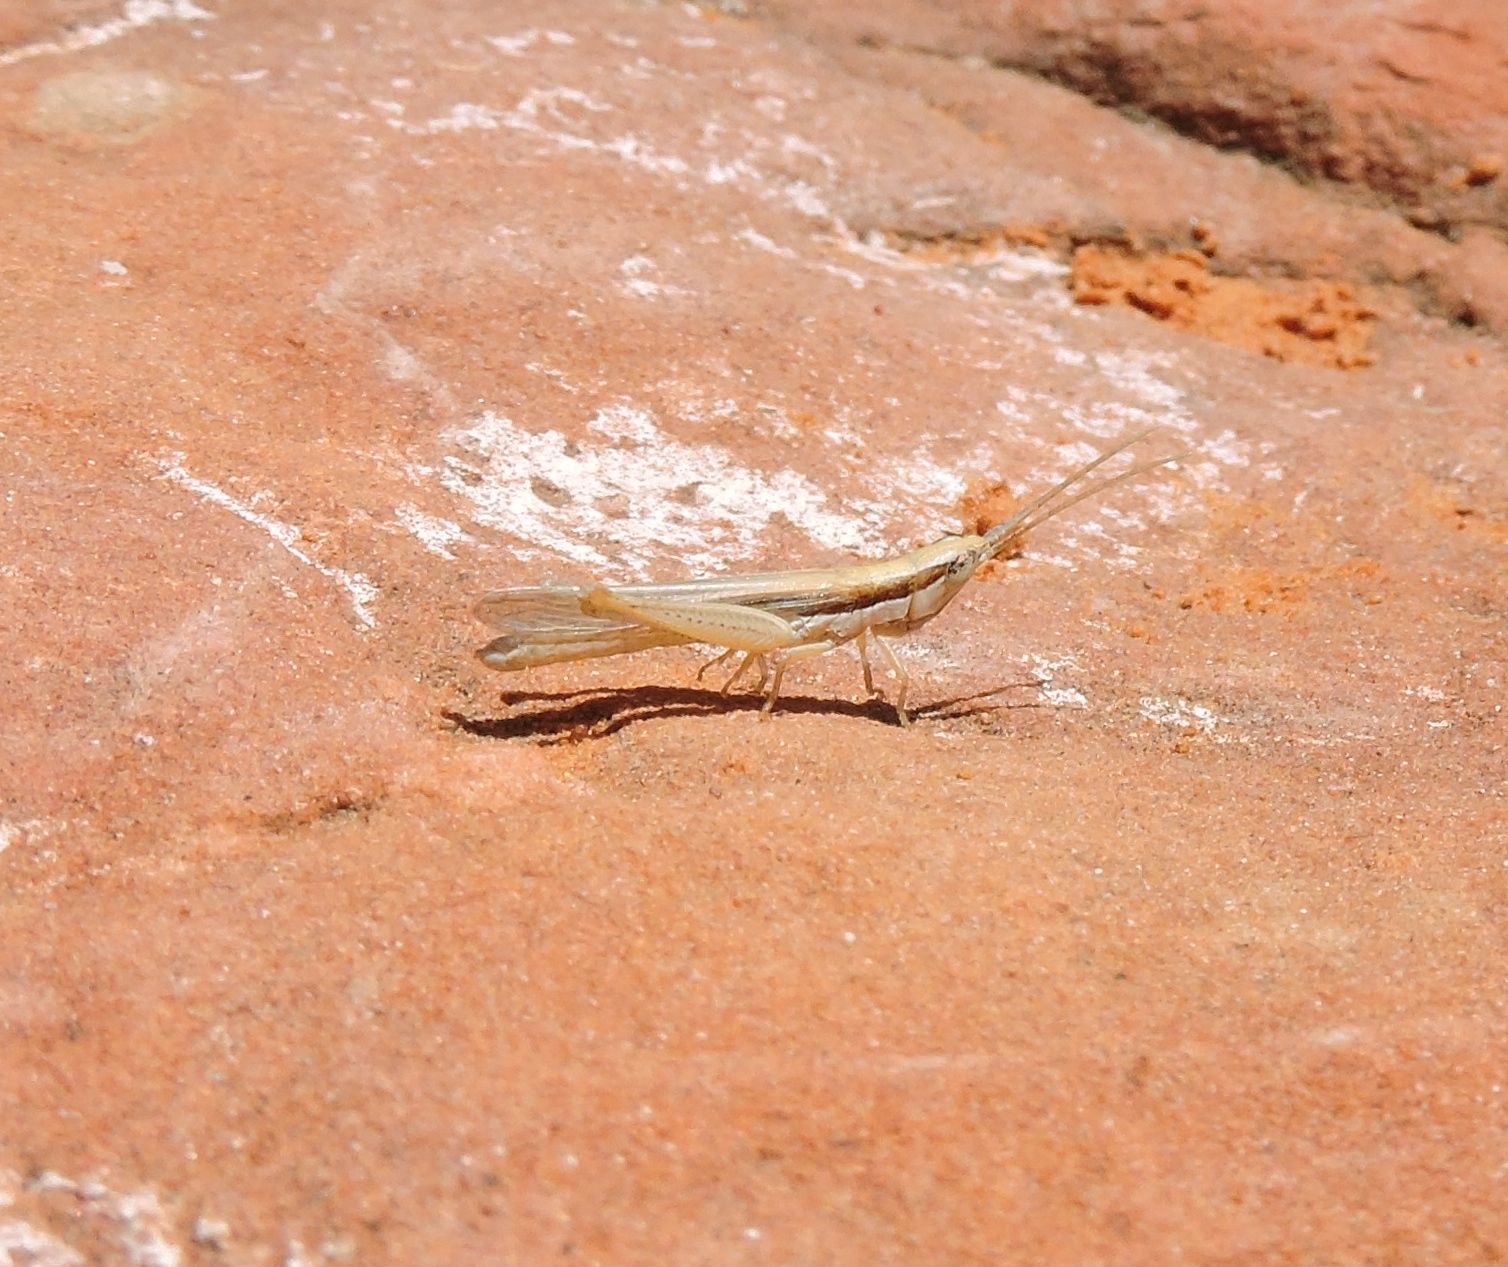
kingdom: Animalia
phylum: Arthropoda
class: Insecta
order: Orthoptera
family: Acrididae
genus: Paropomala
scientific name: Paropomala pallida
